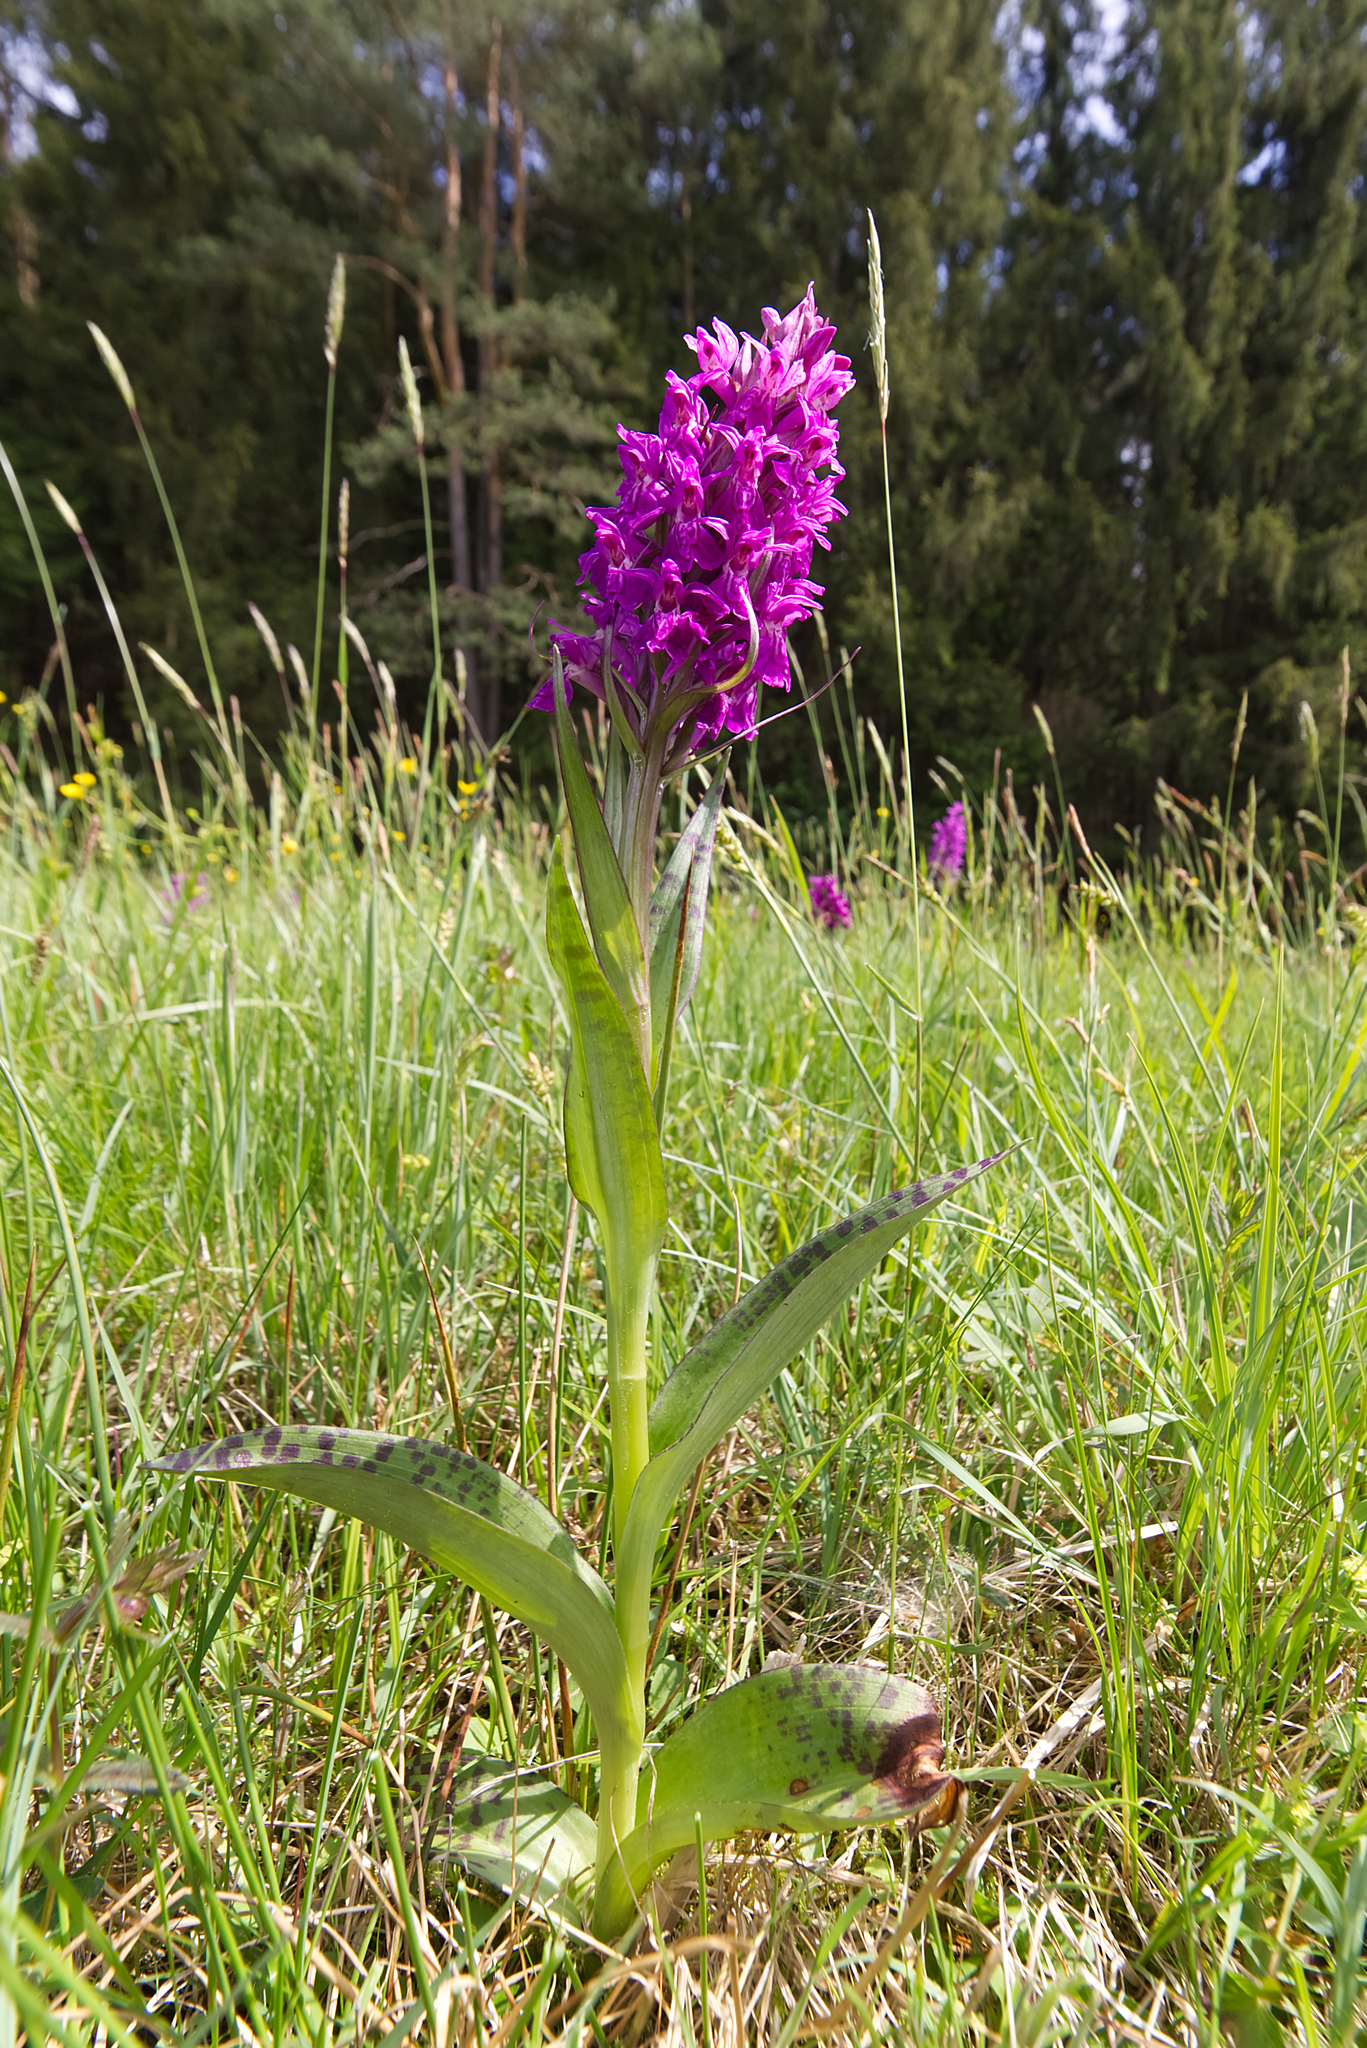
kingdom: Plantae
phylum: Tracheophyta
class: Liliopsida
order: Asparagales
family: Orchidaceae
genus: Dactylorhiza
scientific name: Dactylorhiza majalis
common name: Marsh orchid
